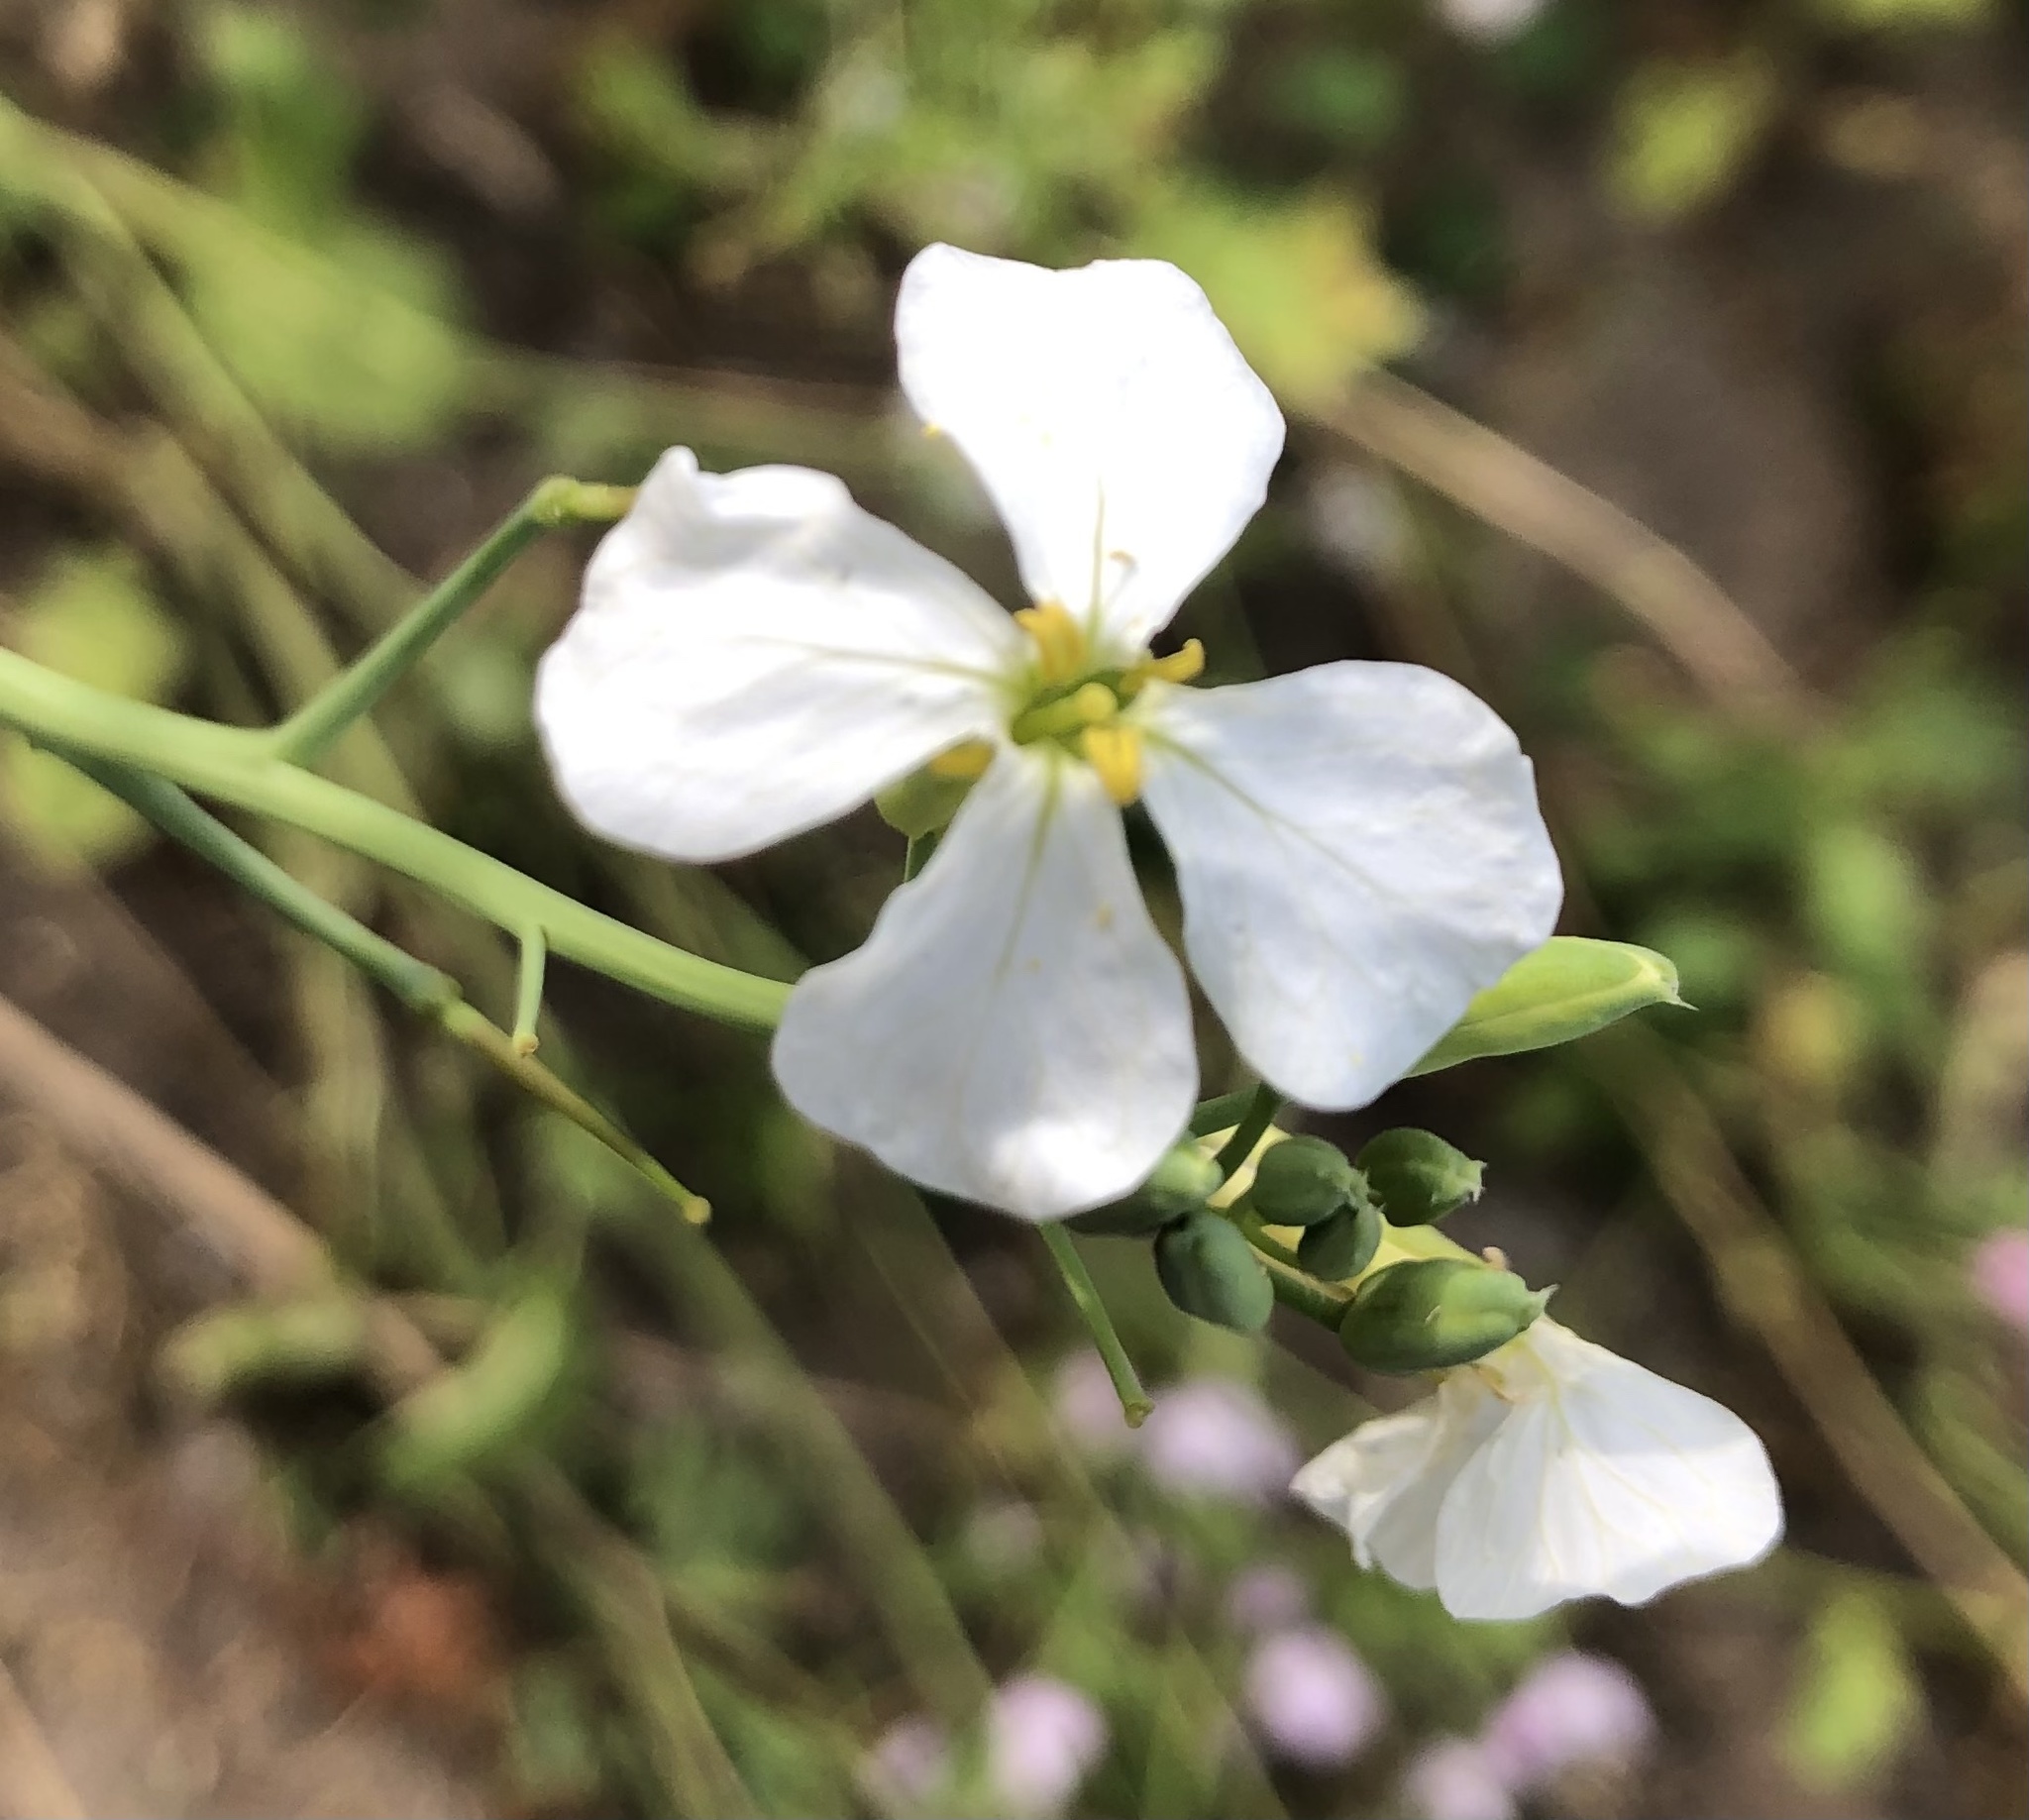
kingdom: Plantae
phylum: Tracheophyta
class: Magnoliopsida
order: Brassicales
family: Brassicaceae
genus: Raphanus
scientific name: Raphanus raphanistrum
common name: Wild radish
